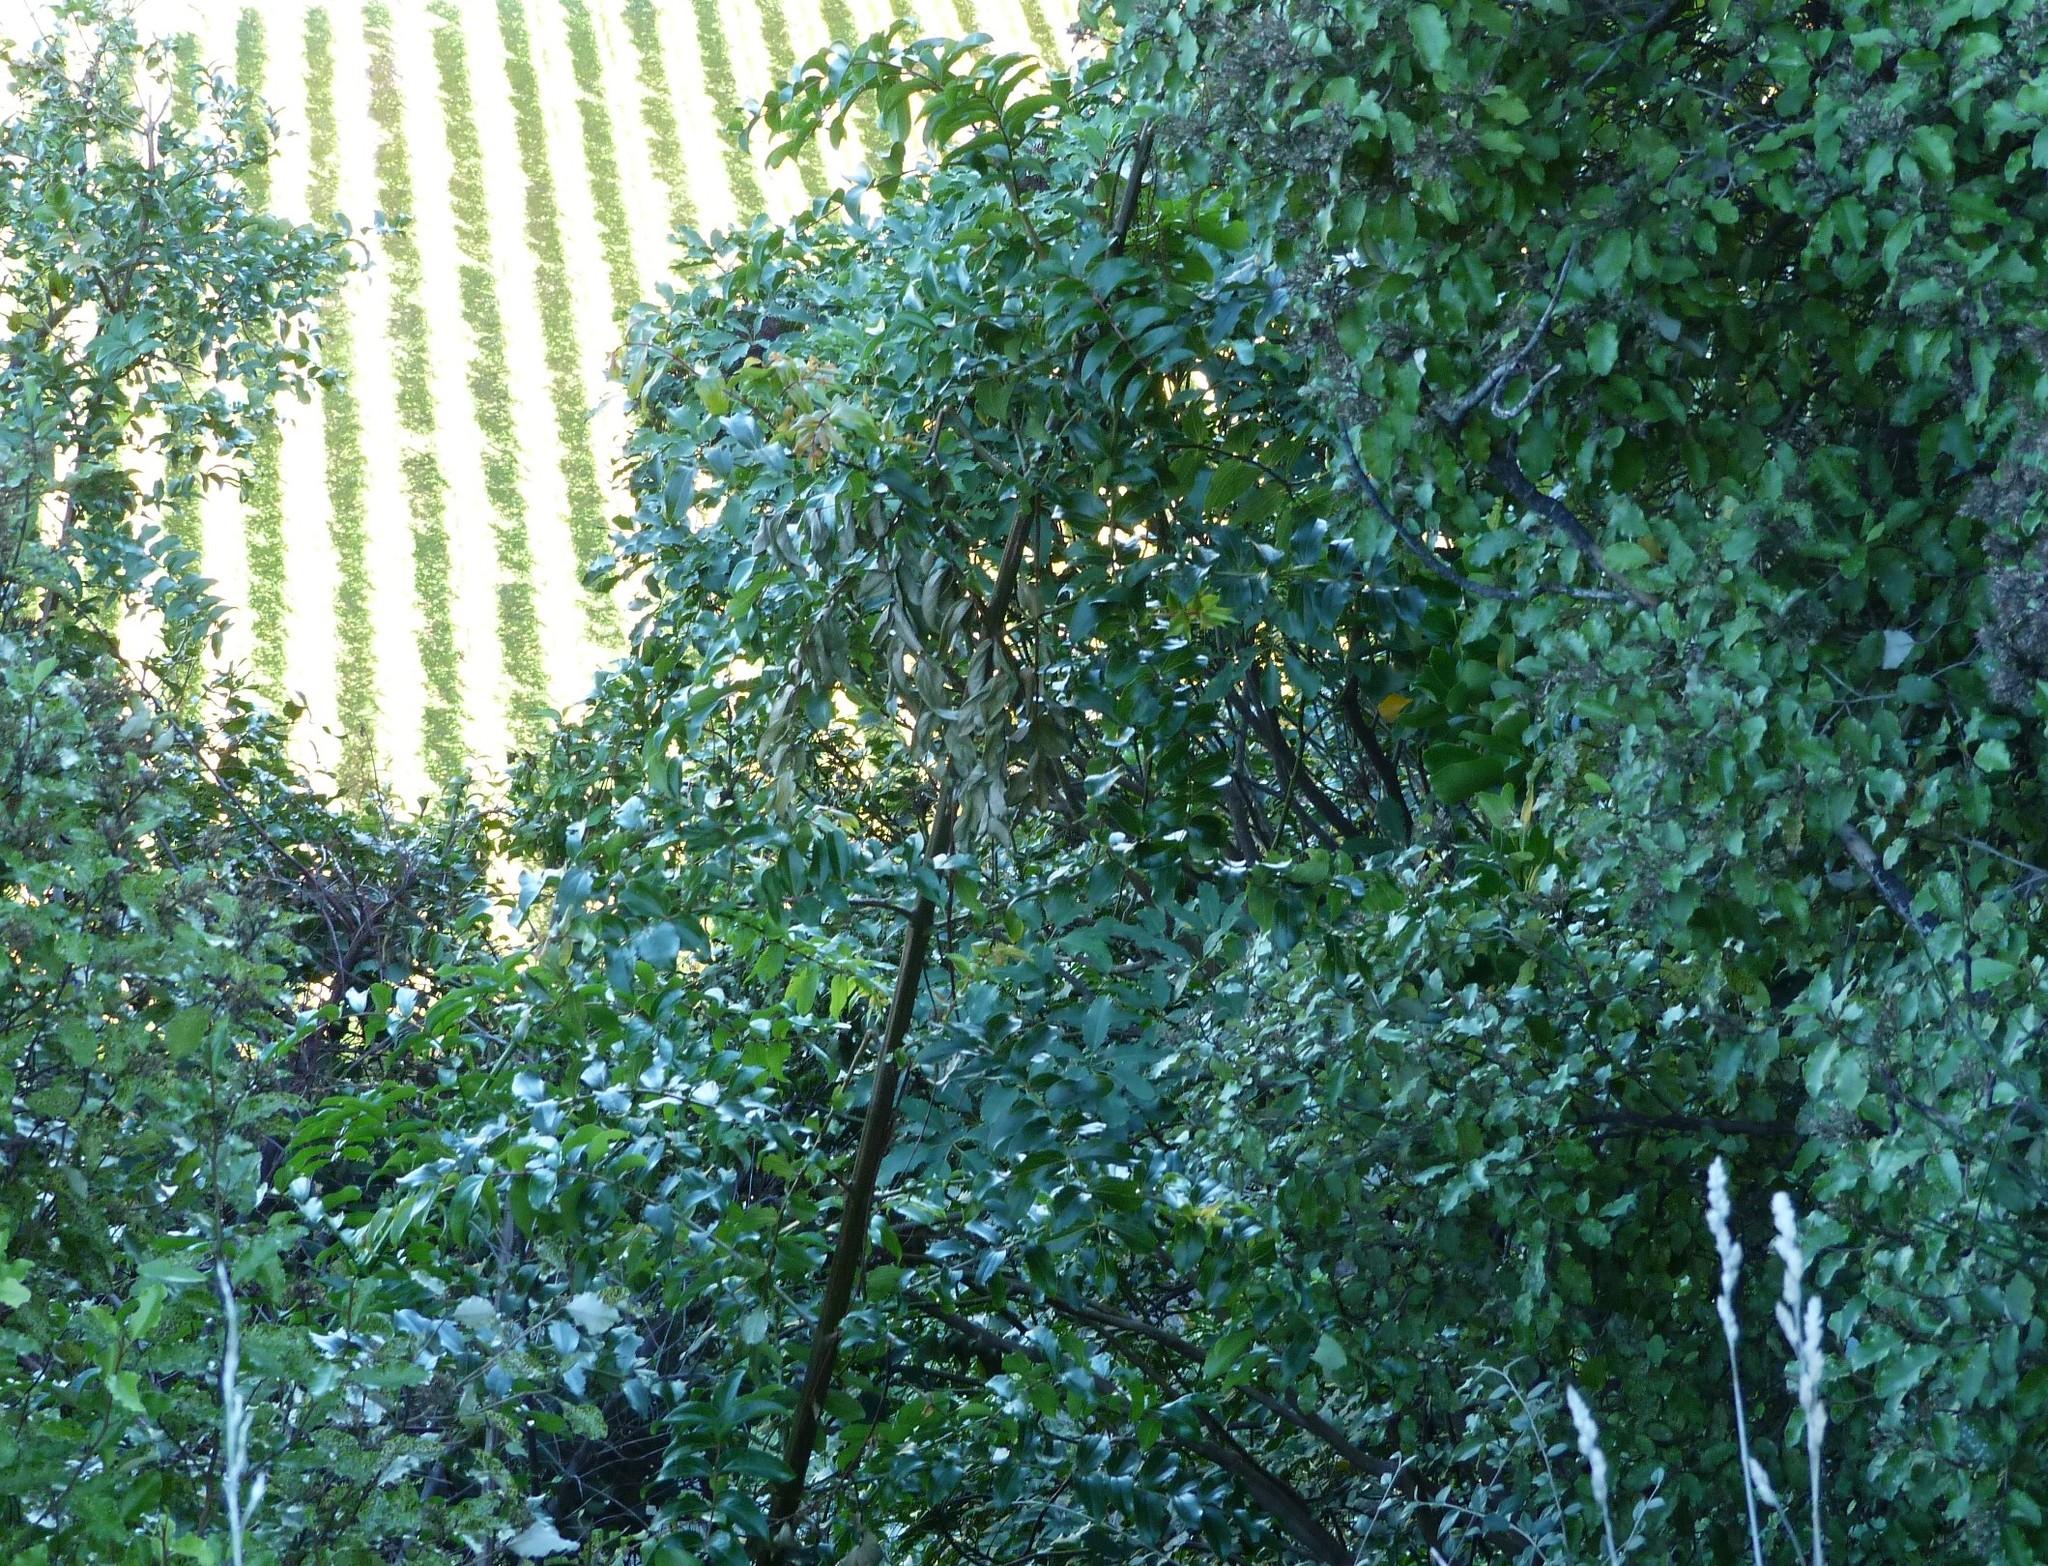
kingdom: Plantae
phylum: Tracheophyta
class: Magnoliopsida
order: Cucurbitales
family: Coriariaceae
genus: Coriaria
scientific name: Coriaria arborea
